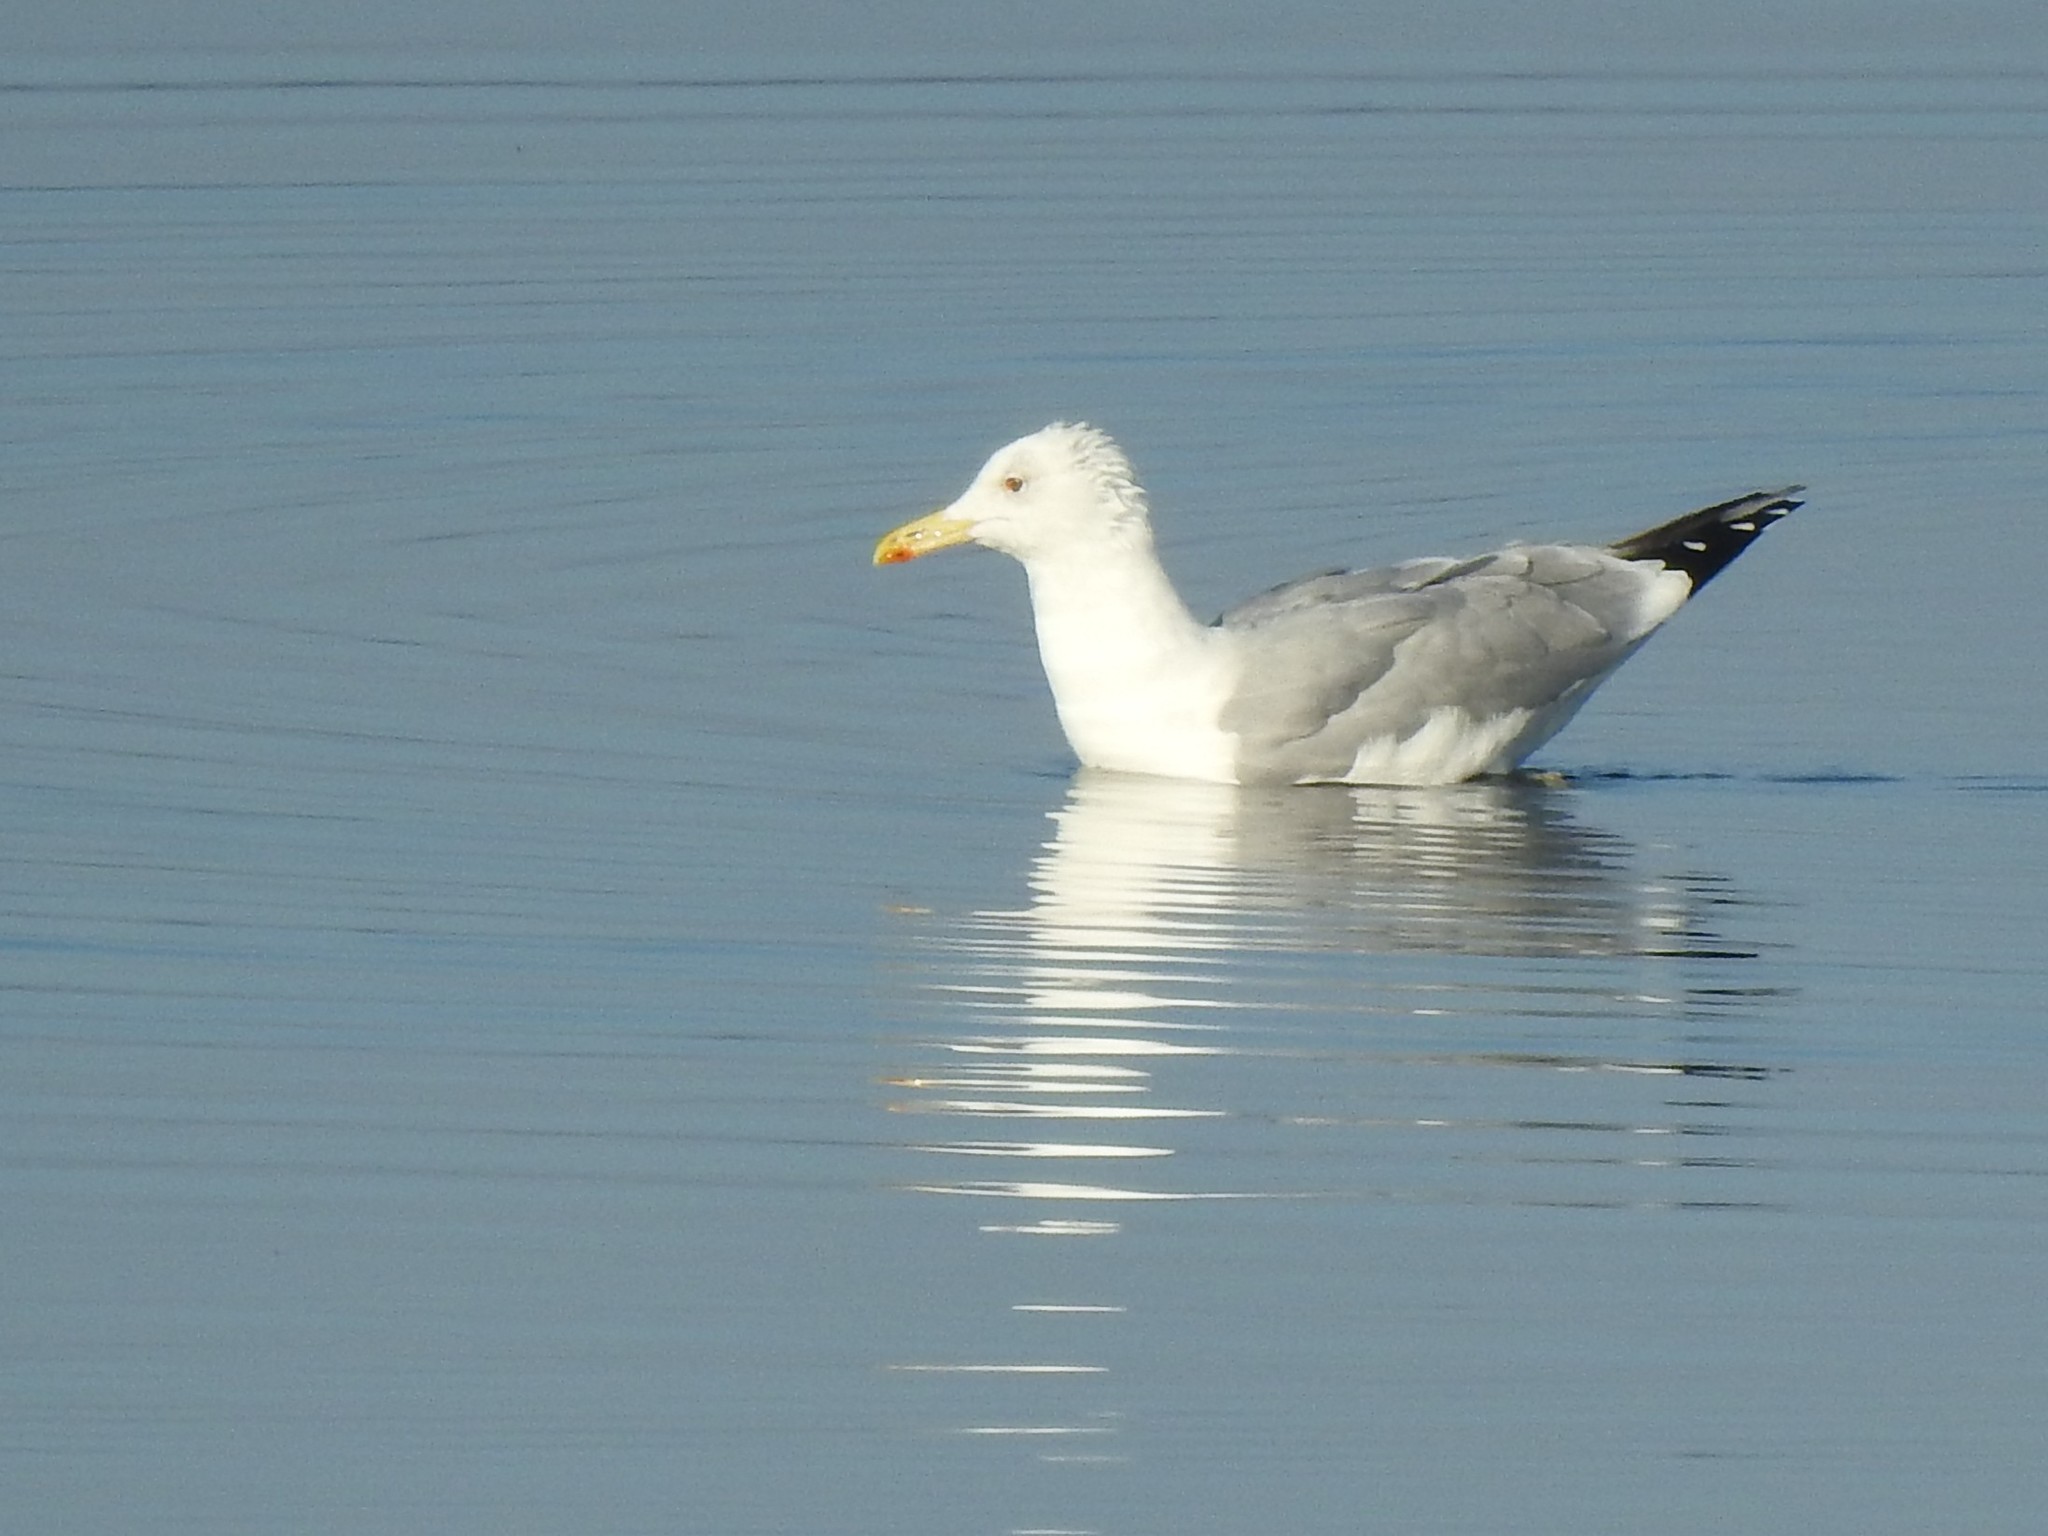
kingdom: Animalia
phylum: Chordata
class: Aves
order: Charadriiformes
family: Laridae
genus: Larus
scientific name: Larus cachinnans
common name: Caspian gull
